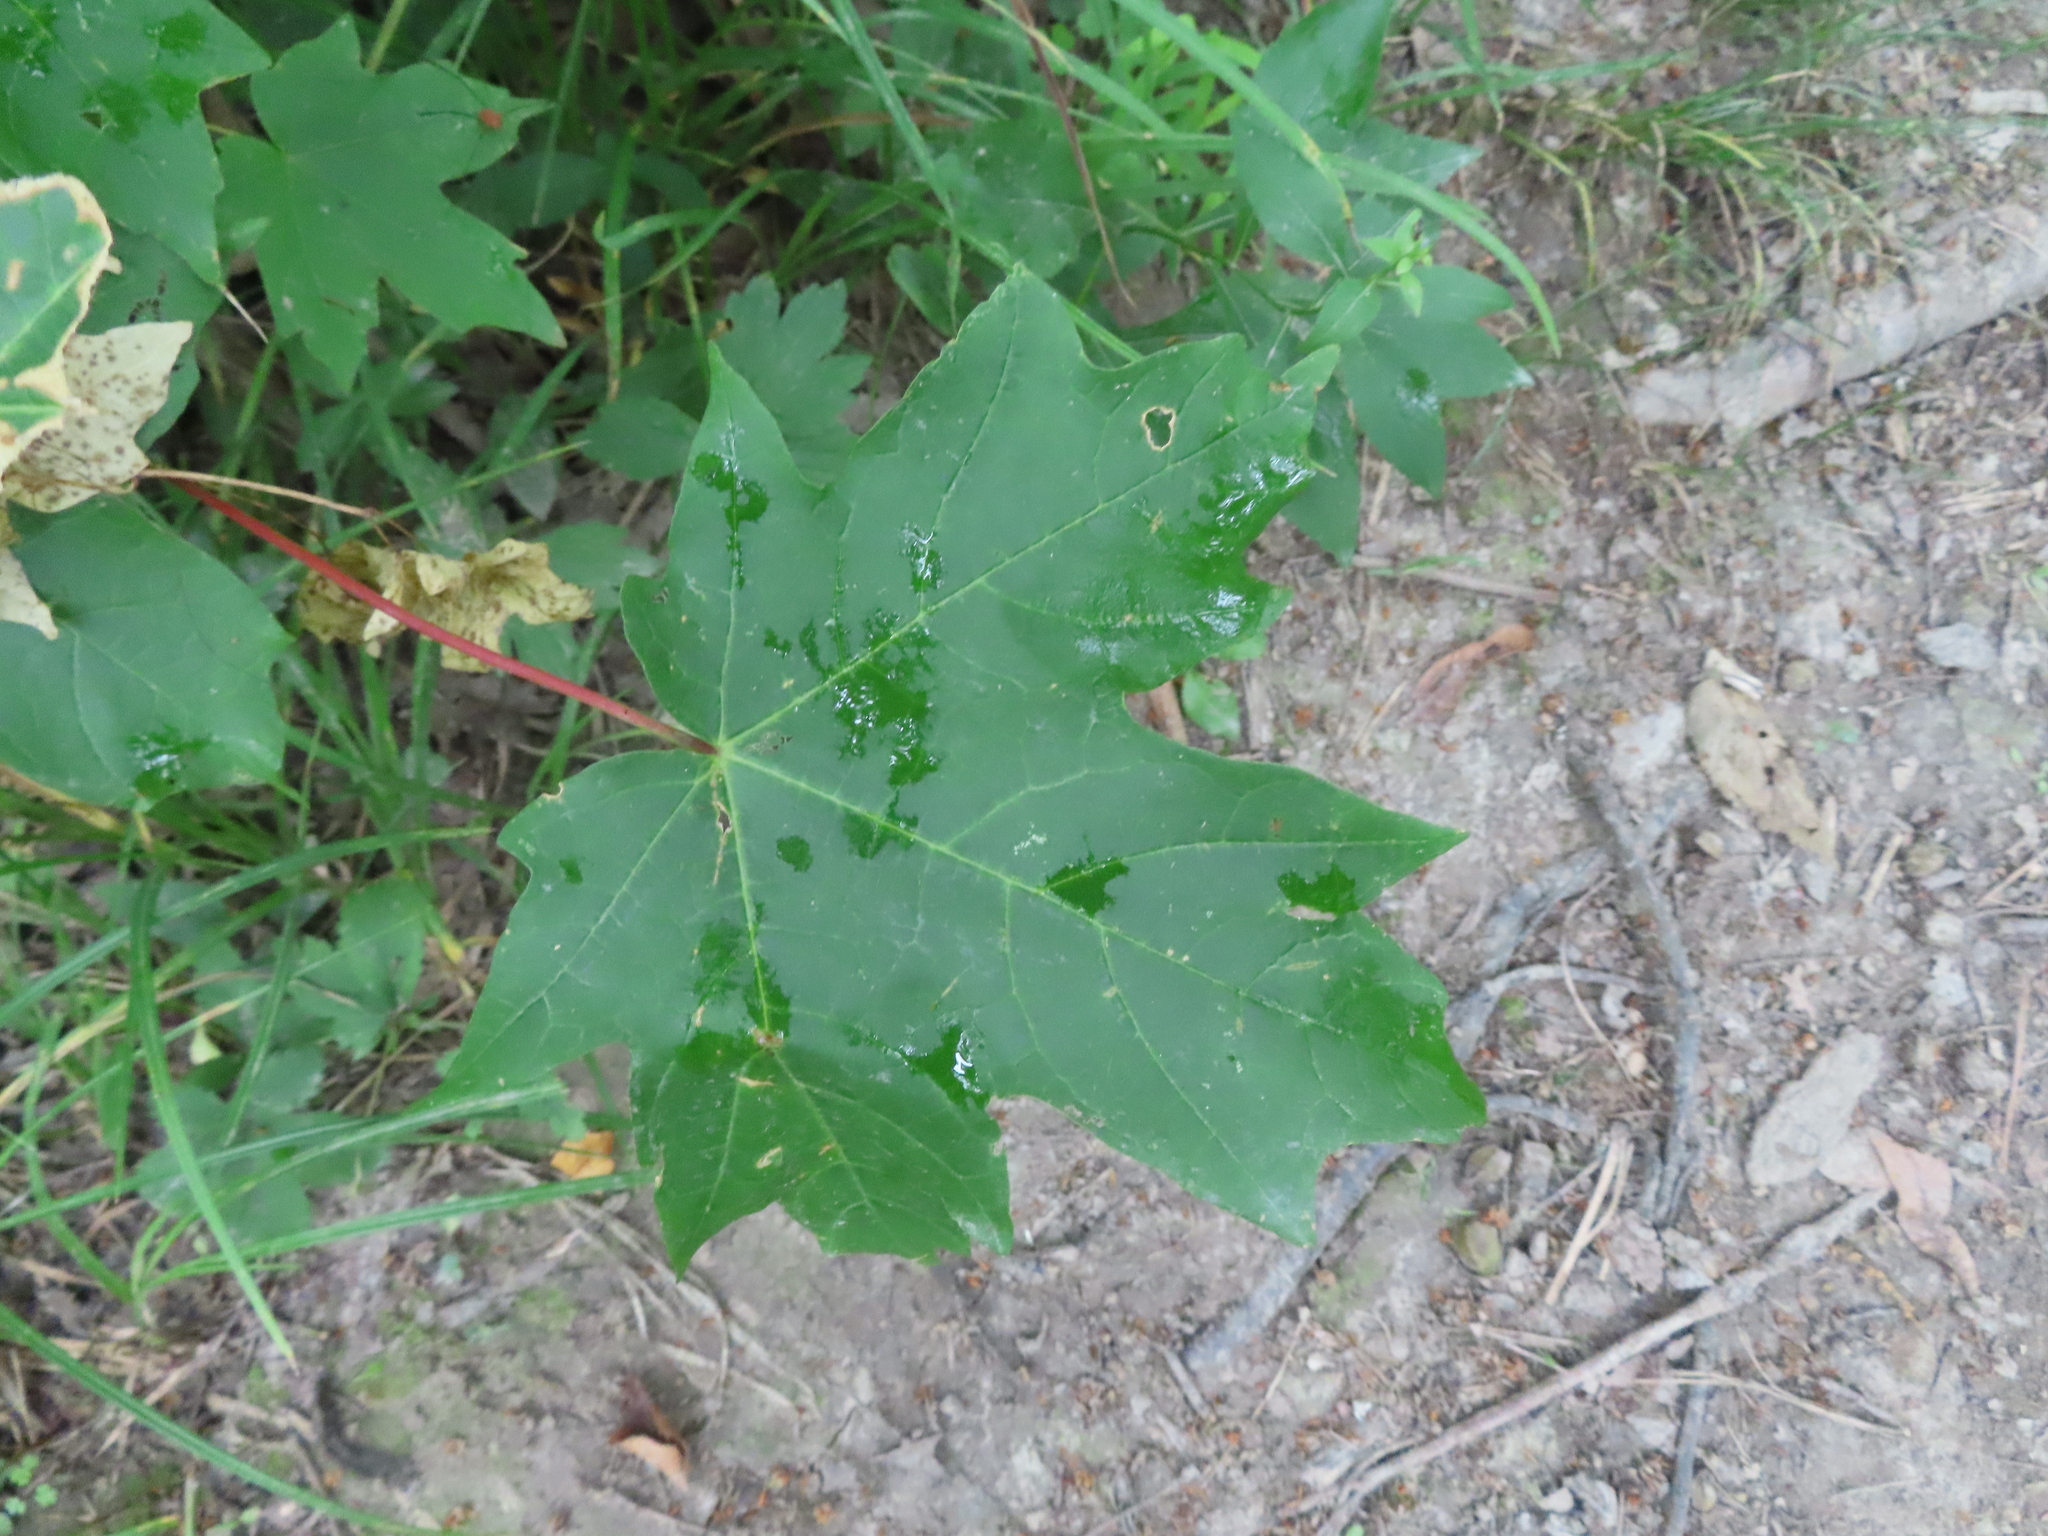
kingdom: Plantae
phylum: Tracheophyta
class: Magnoliopsida
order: Sapindales
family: Sapindaceae
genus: Acer
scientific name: Acer saccharum
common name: Sugar maple
